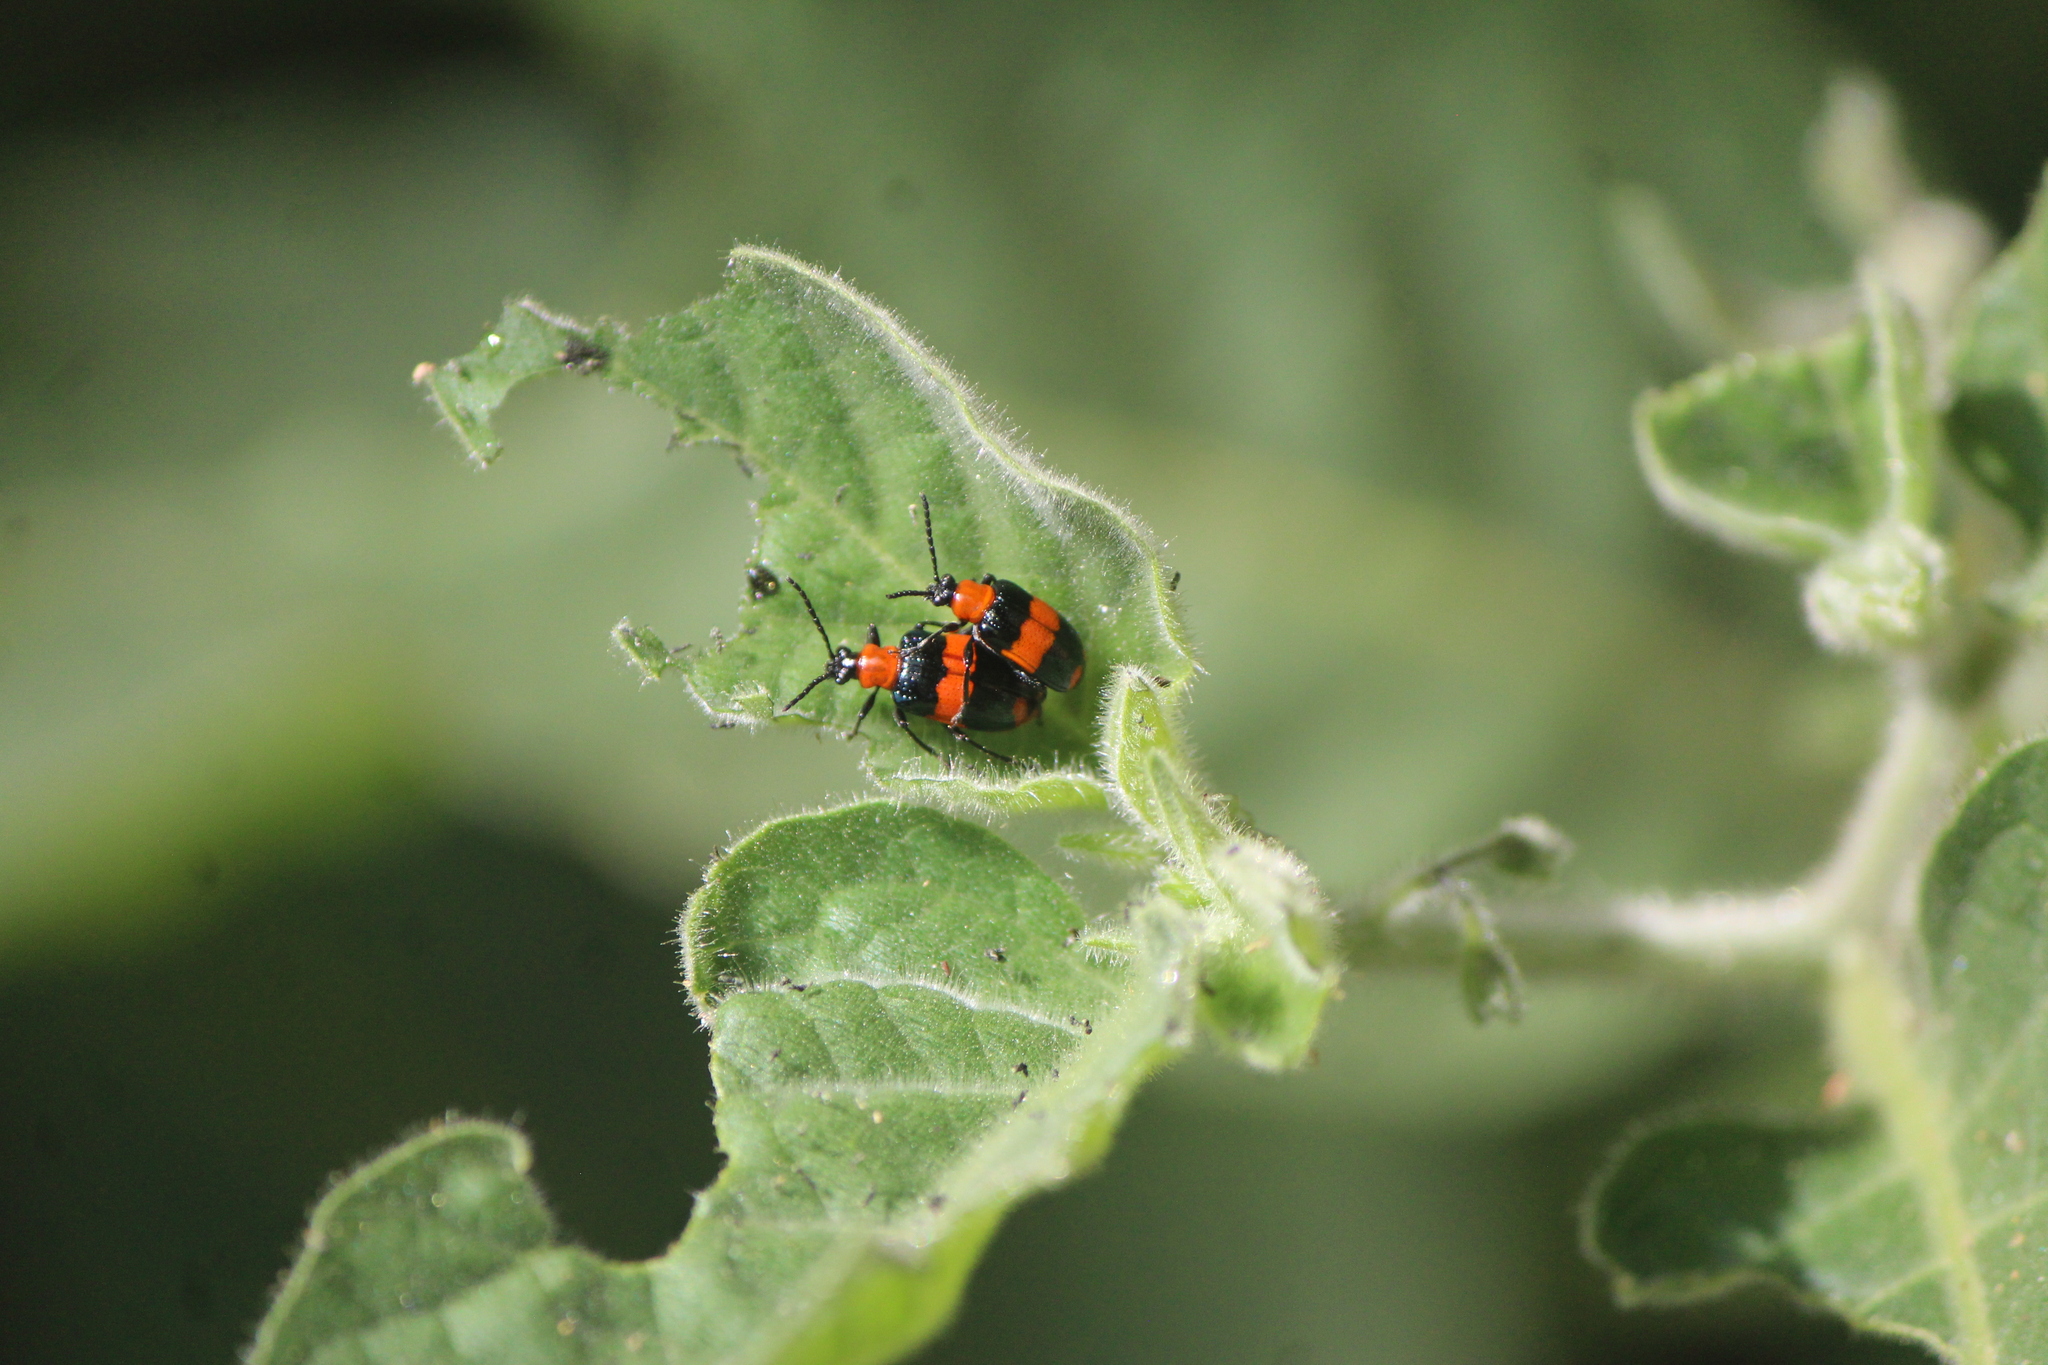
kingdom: Animalia
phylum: Arthropoda
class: Insecta
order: Coleoptera
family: Chrysomelidae
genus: Lema
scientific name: Lema
